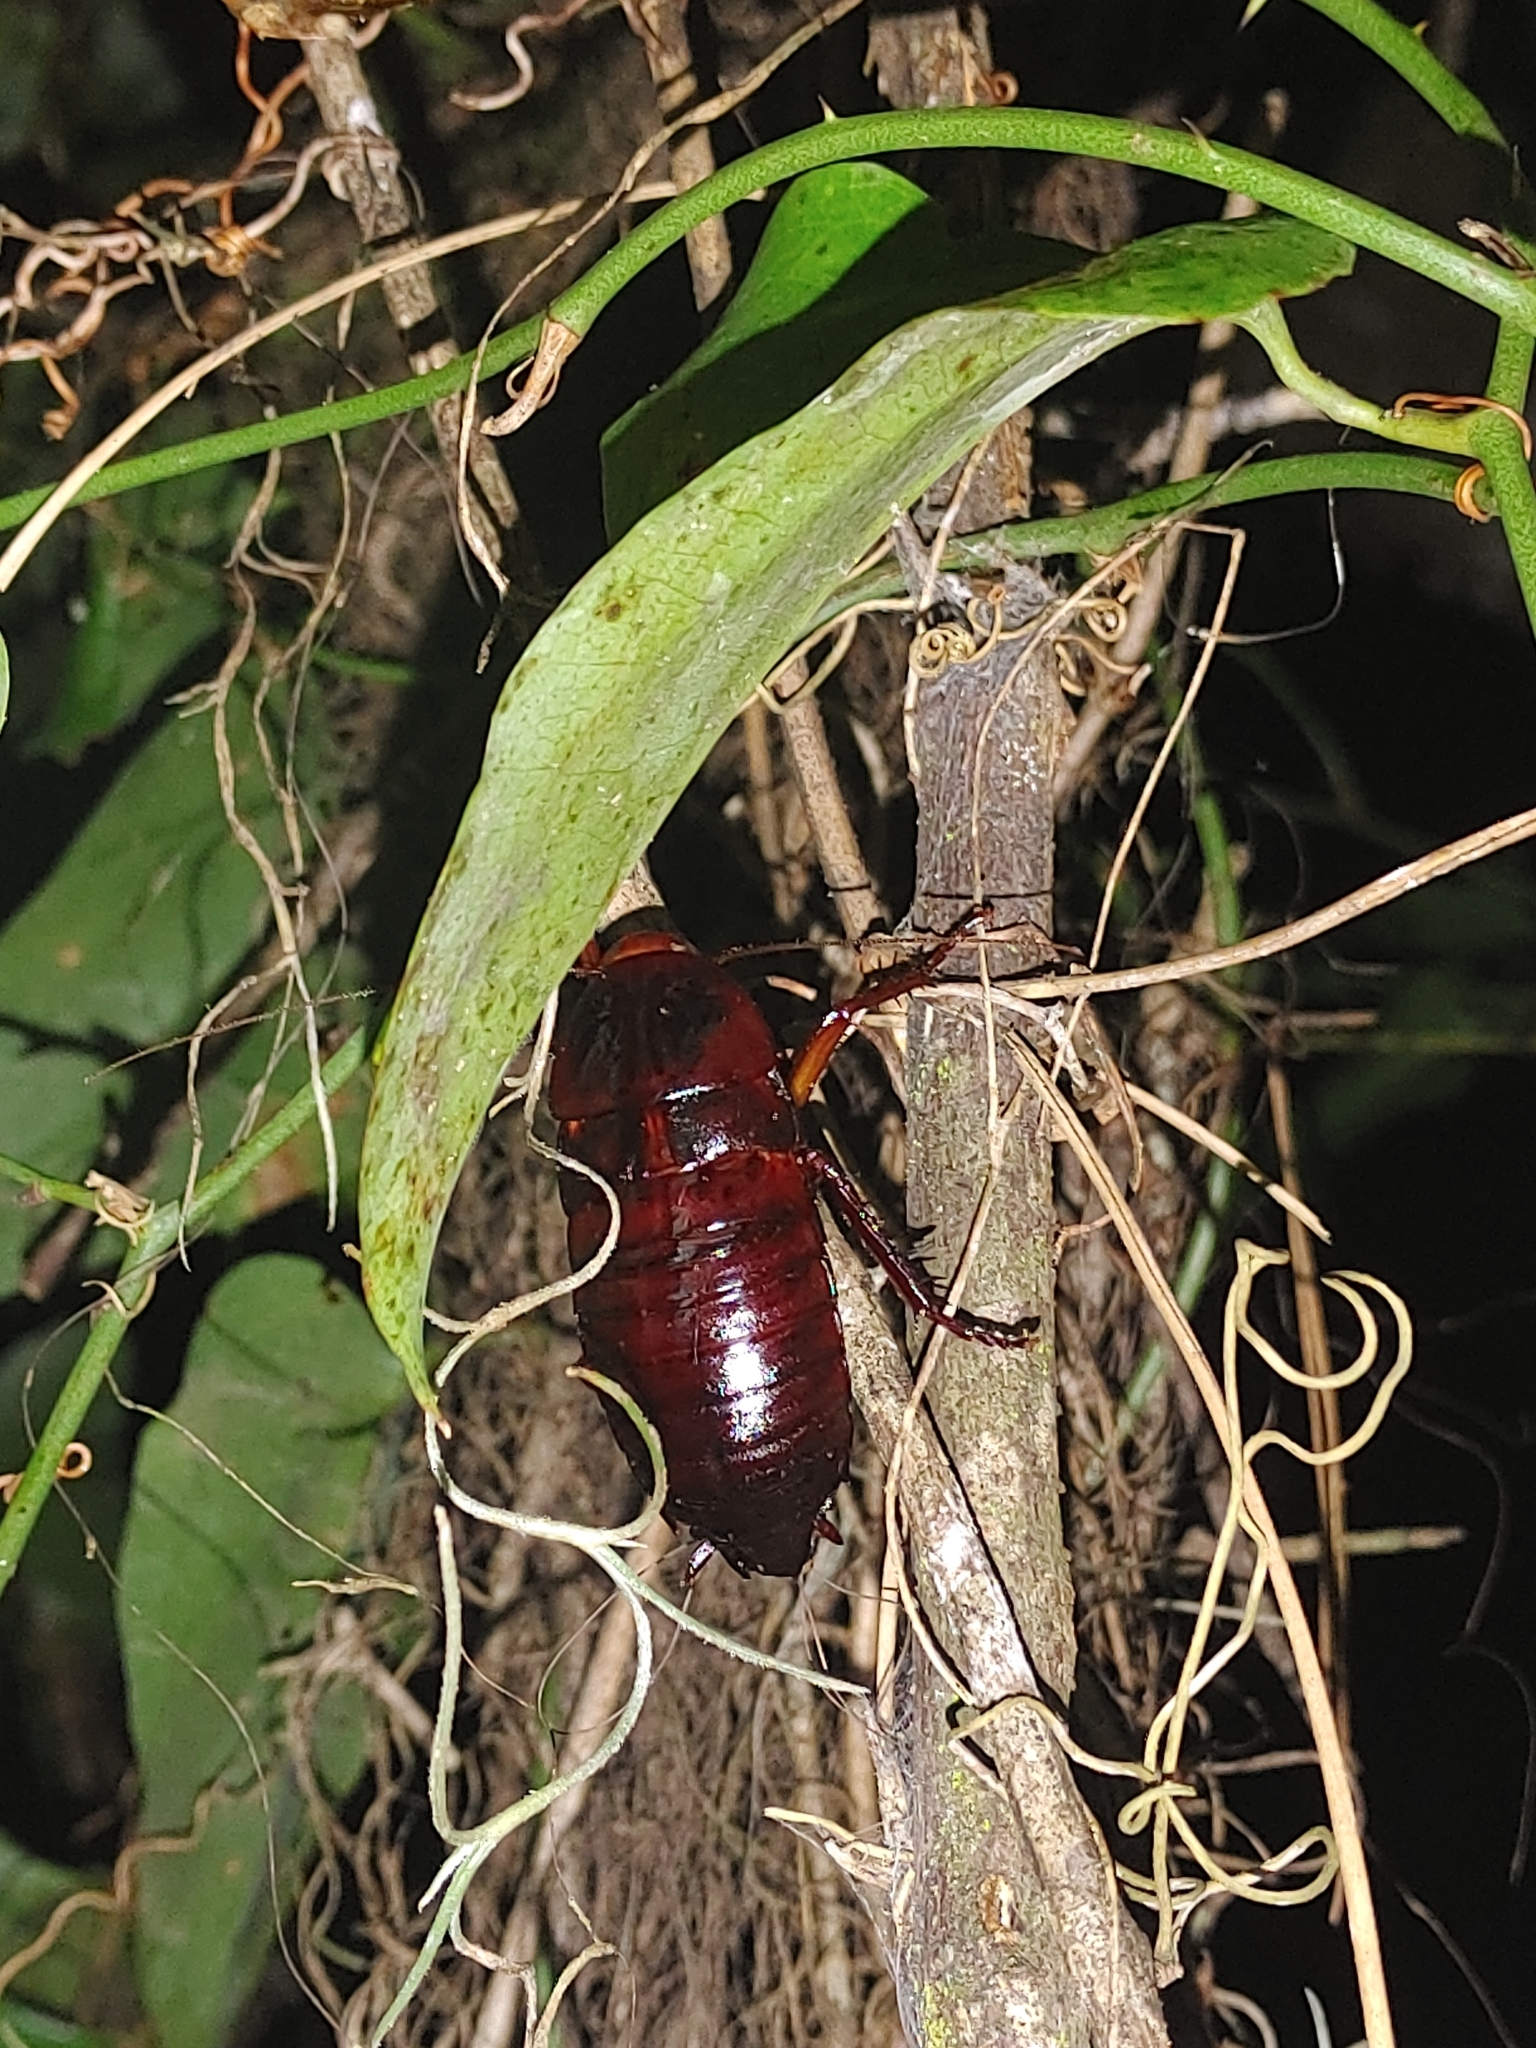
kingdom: Animalia
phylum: Arthropoda
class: Insecta
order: Blattodea
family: Blattidae
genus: Eurycotis
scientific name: Eurycotis floridana
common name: Florida cockroach
